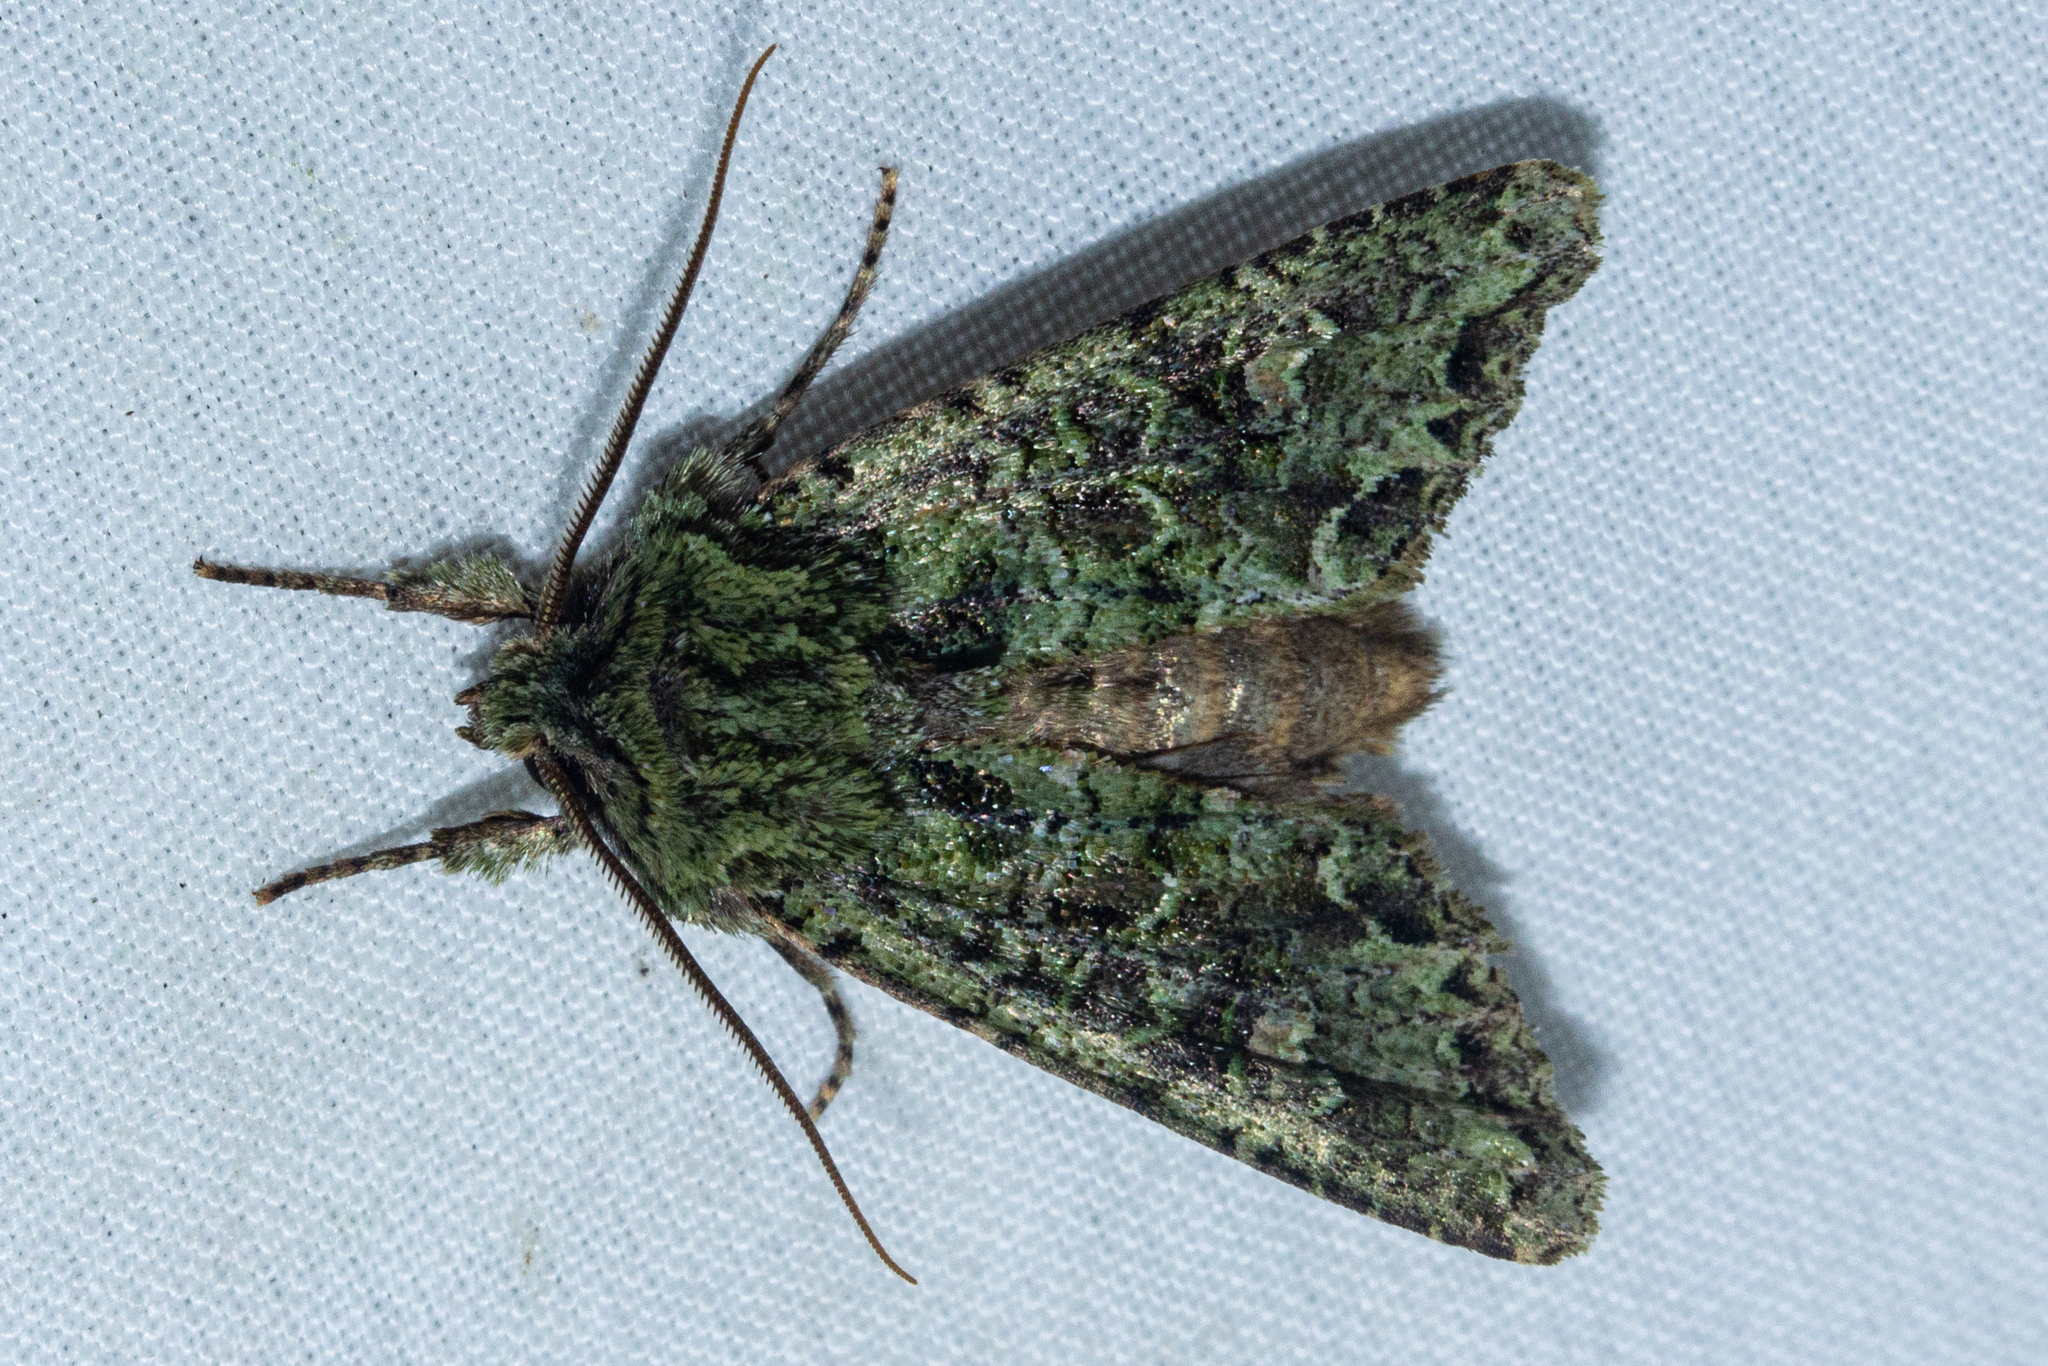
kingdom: Animalia
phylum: Arthropoda
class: Insecta
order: Lepidoptera
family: Noctuidae
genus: Ichneutica
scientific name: Ichneutica
